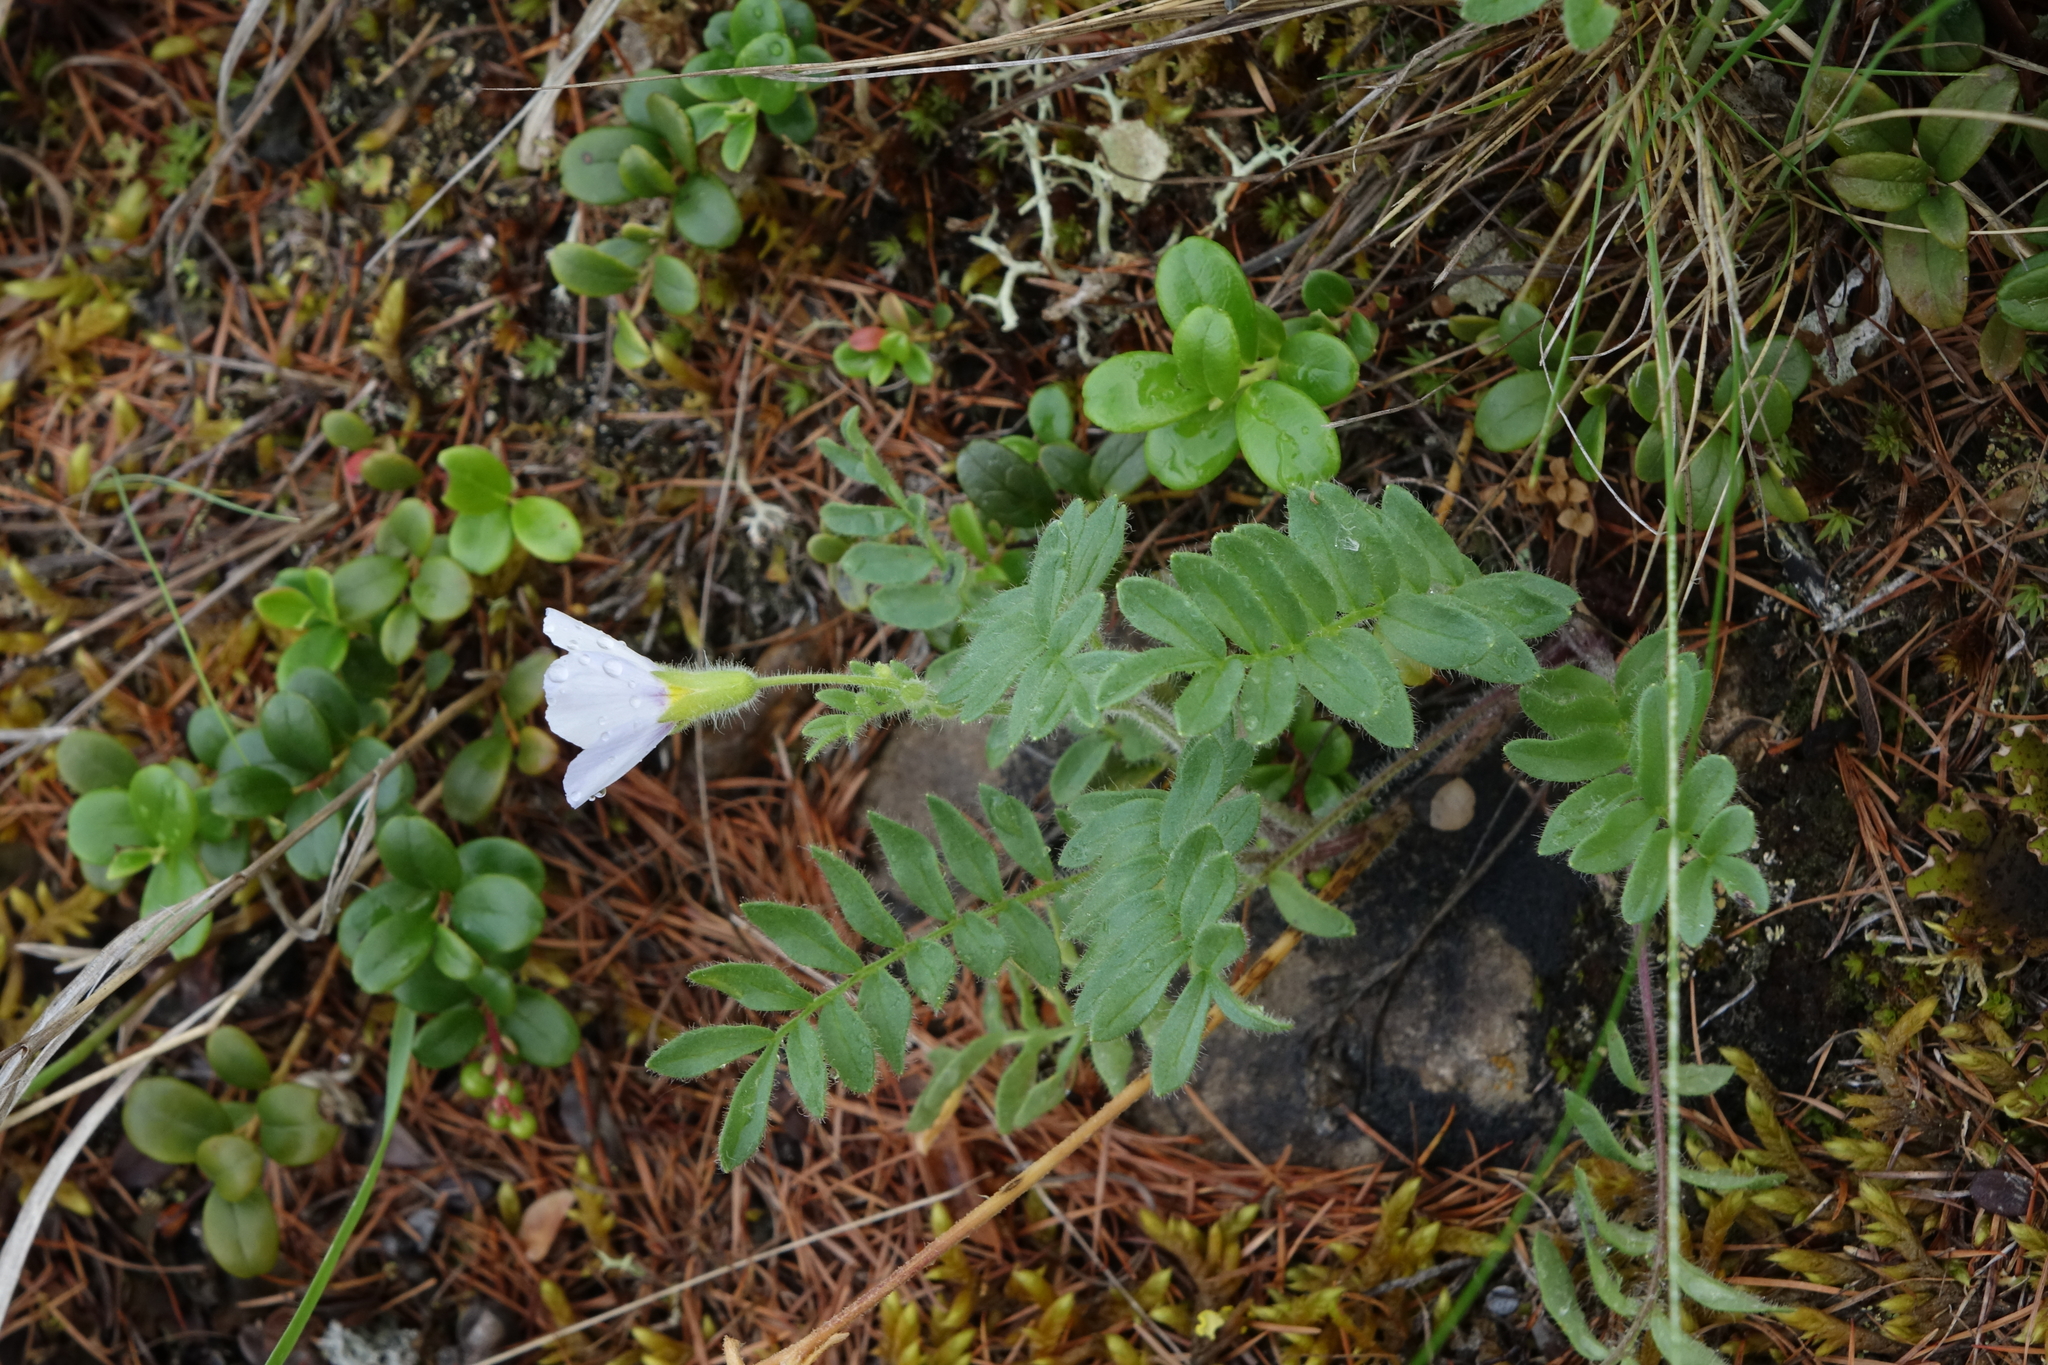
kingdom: Plantae
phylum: Tracheophyta
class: Magnoliopsida
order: Ericales
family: Polemoniaceae
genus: Polemonium
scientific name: Polemonium boreale
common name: Boreal jacob's-ladder
